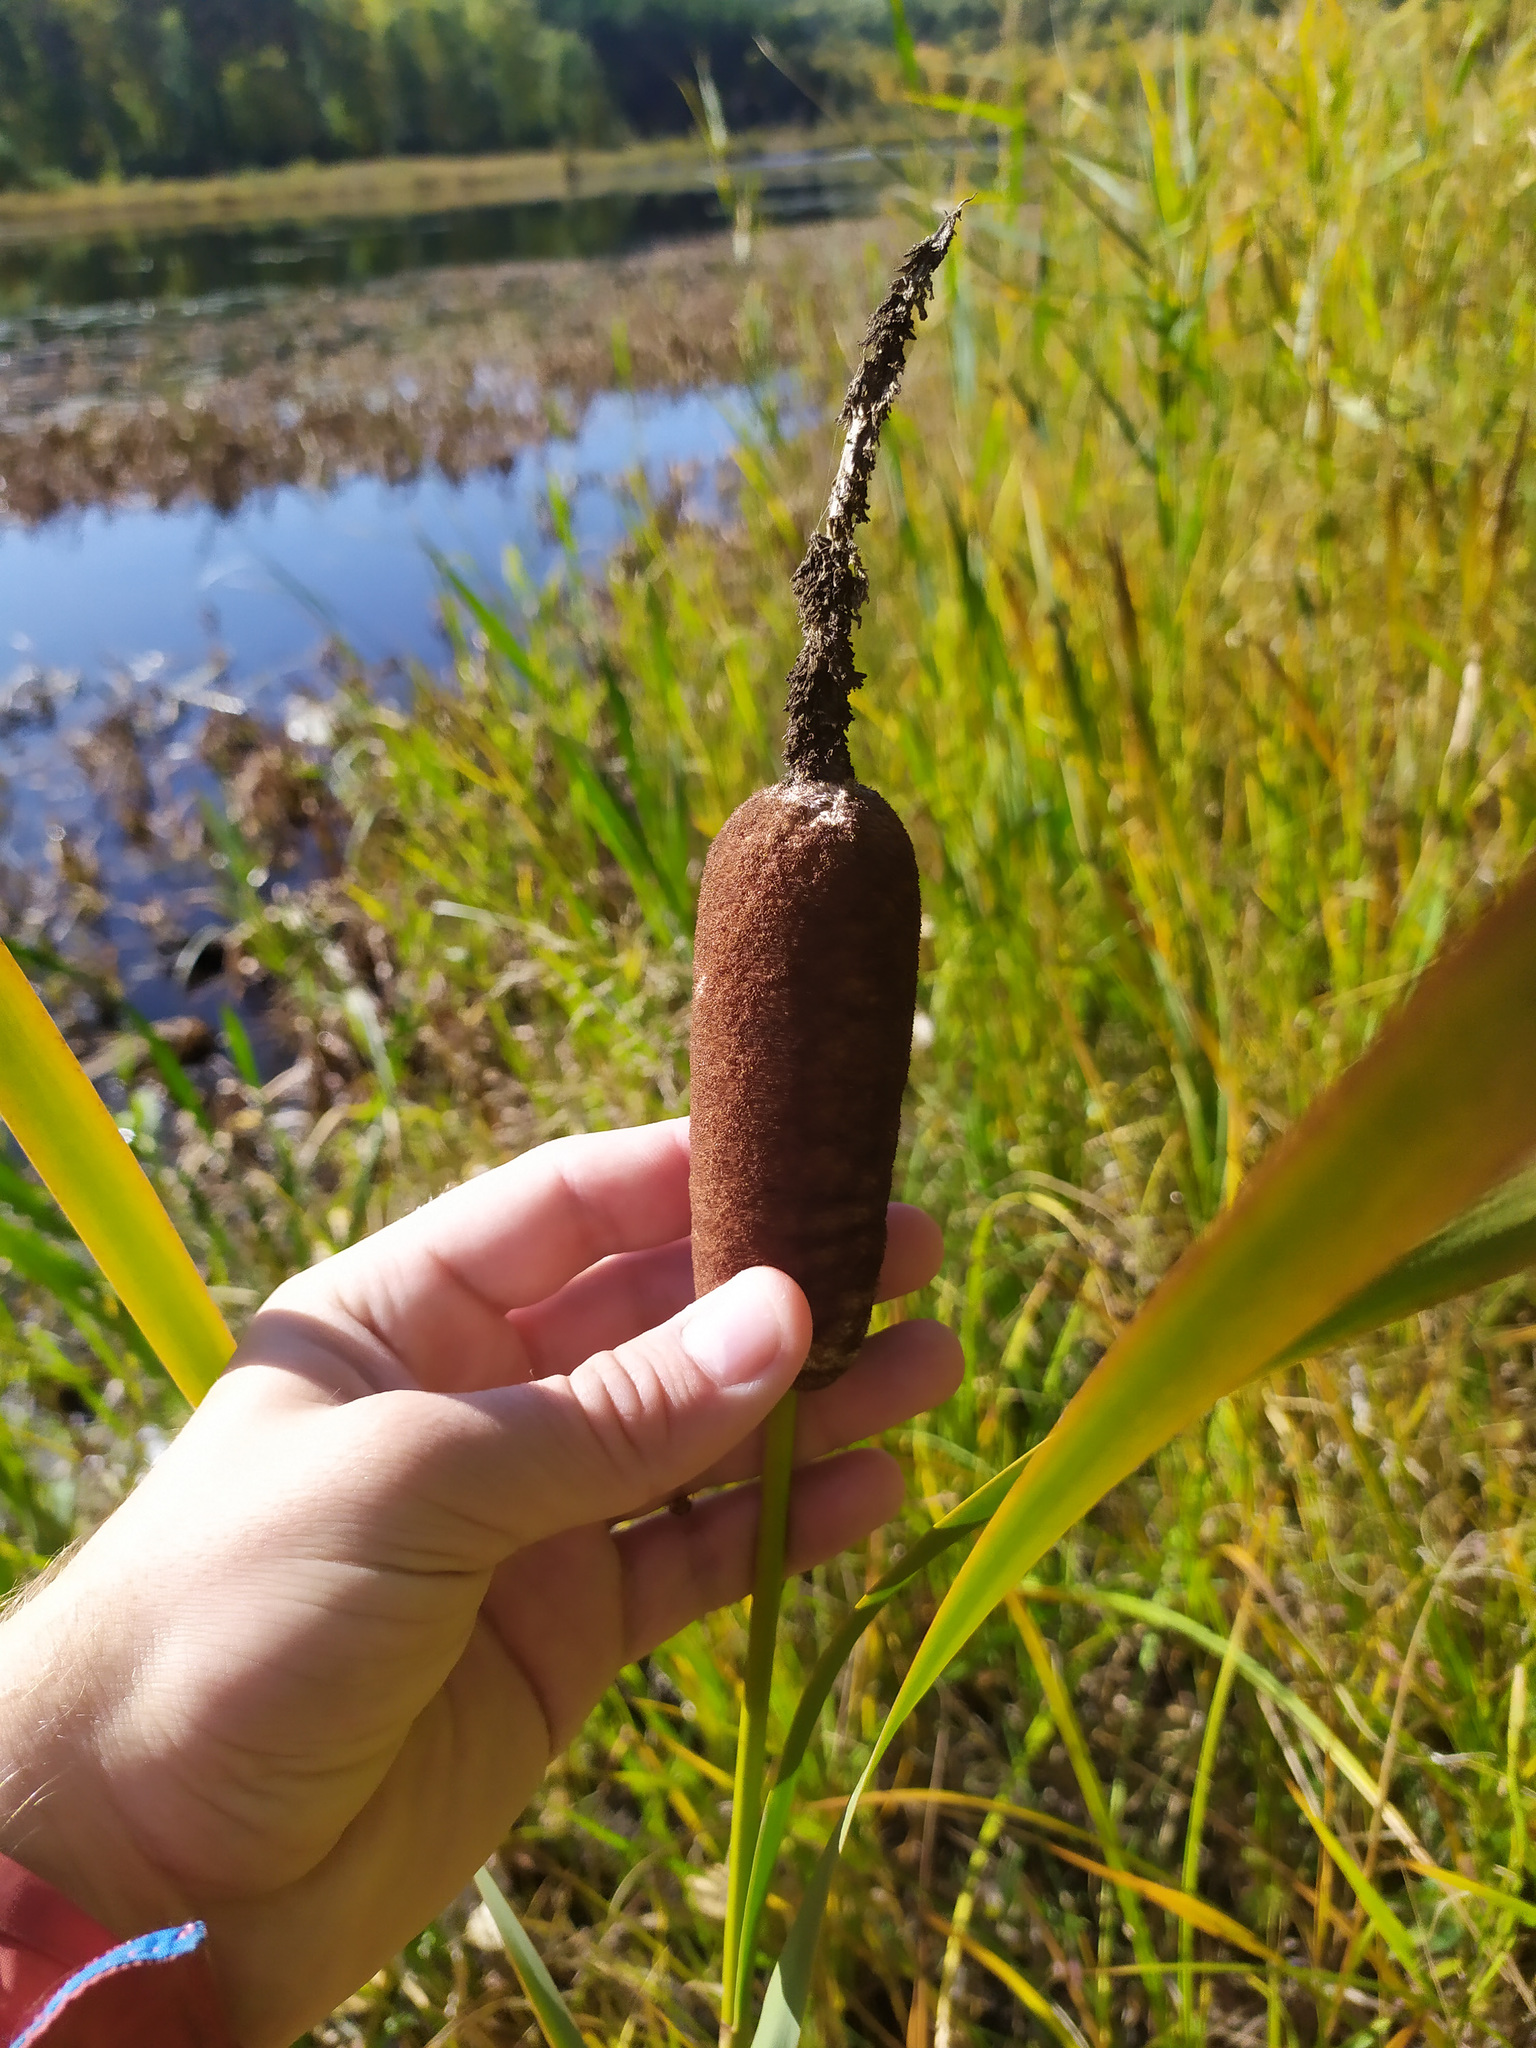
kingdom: Plantae
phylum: Tracheophyta
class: Liliopsida
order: Poales
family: Typhaceae
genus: Typha
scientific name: Typha latifolia
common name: Broadleaf cattail
